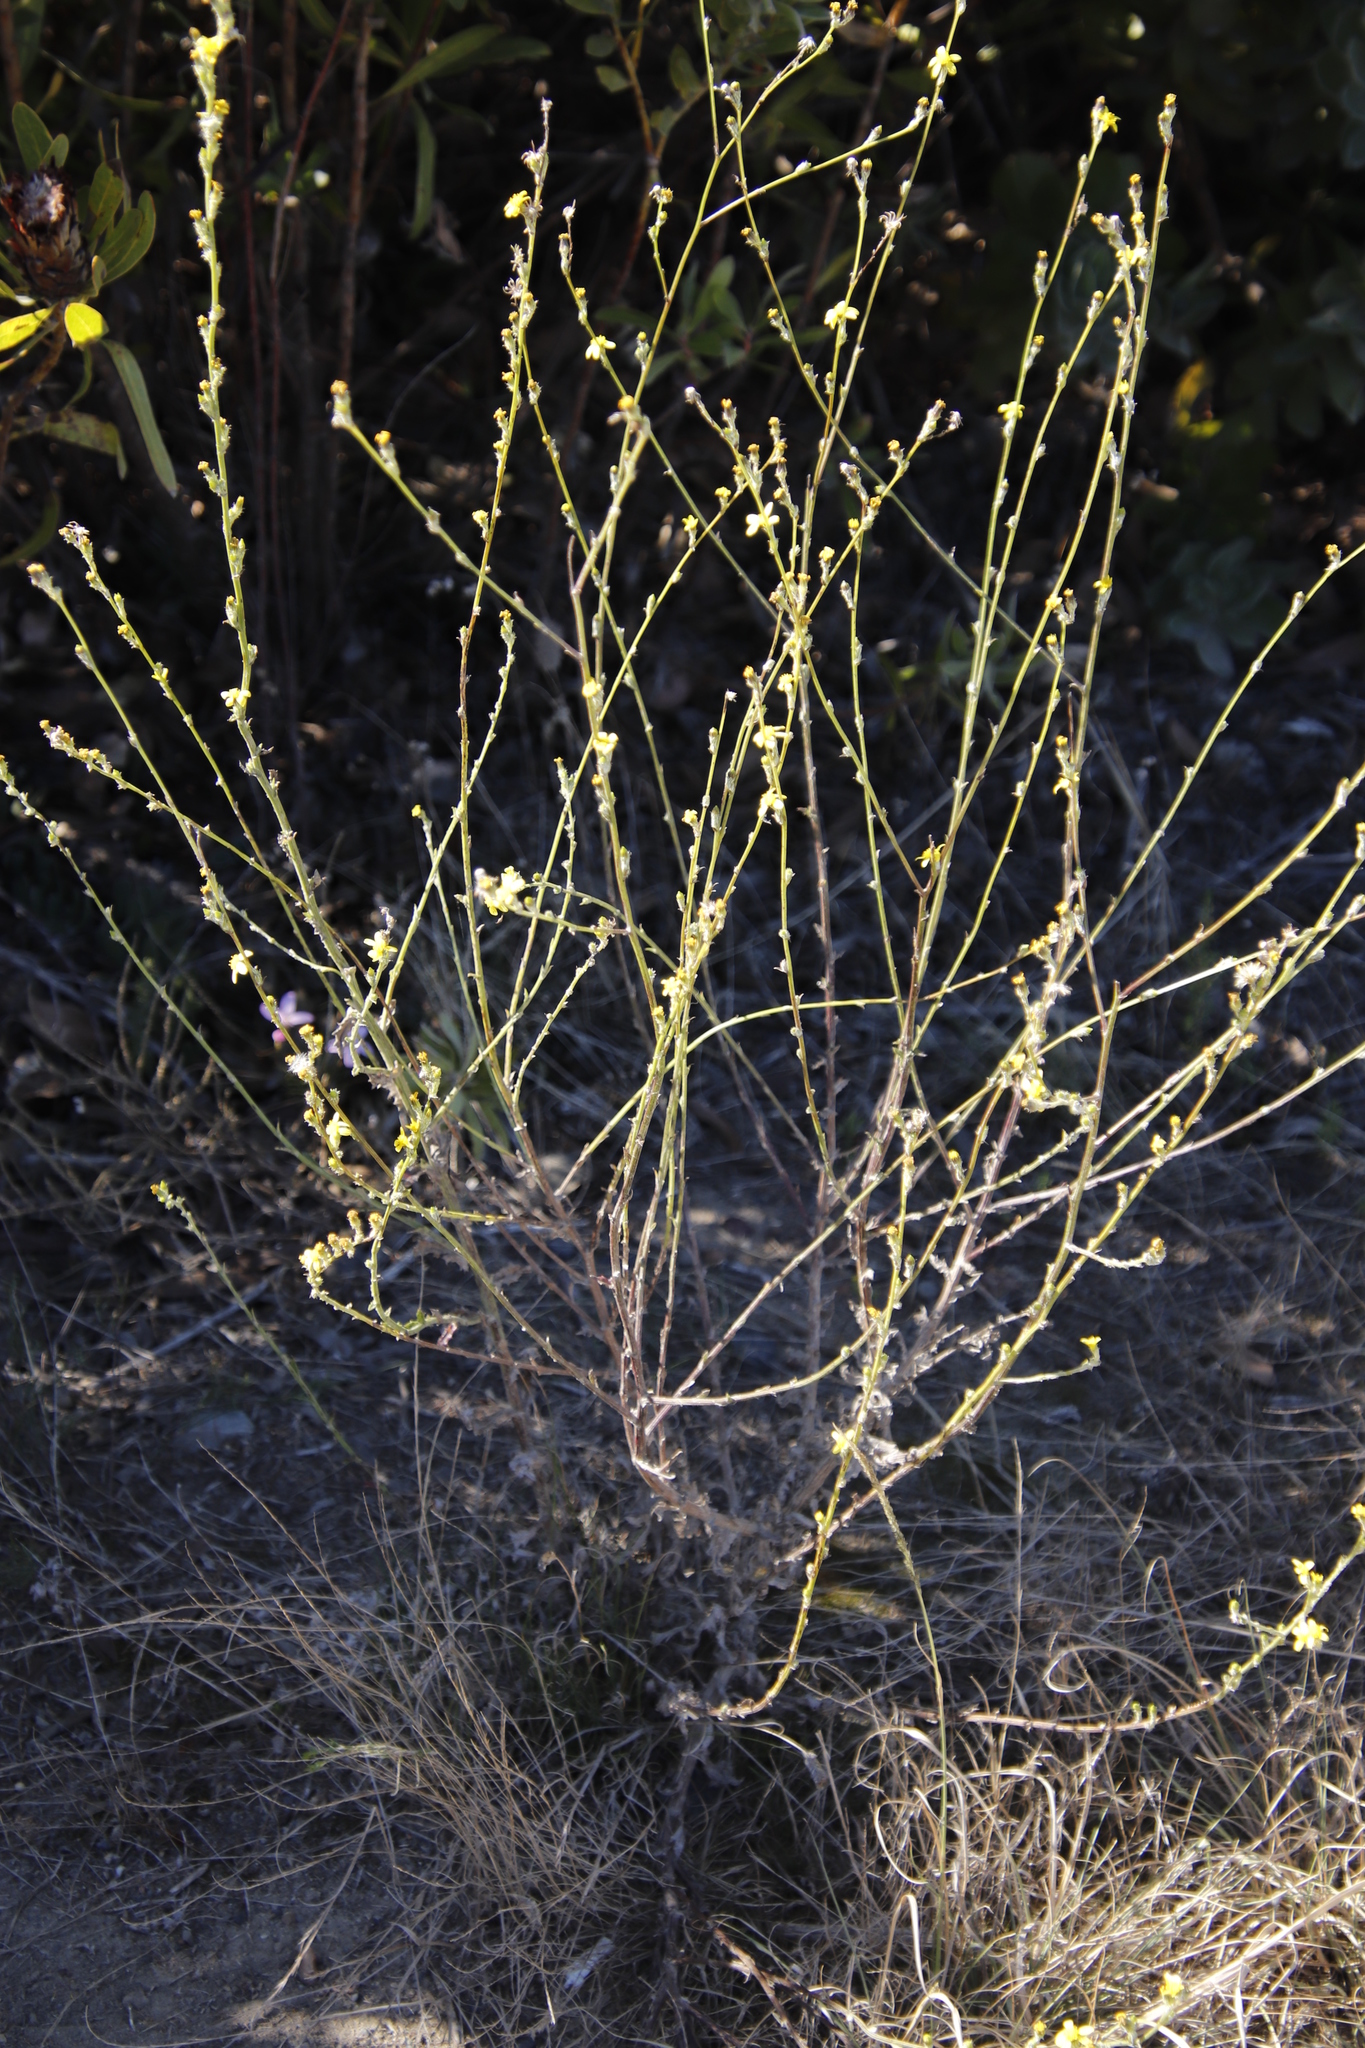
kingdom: Plantae
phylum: Tracheophyta
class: Magnoliopsida
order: Asterales
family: Asteraceae
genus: Senecio
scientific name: Senecio pubigerus
